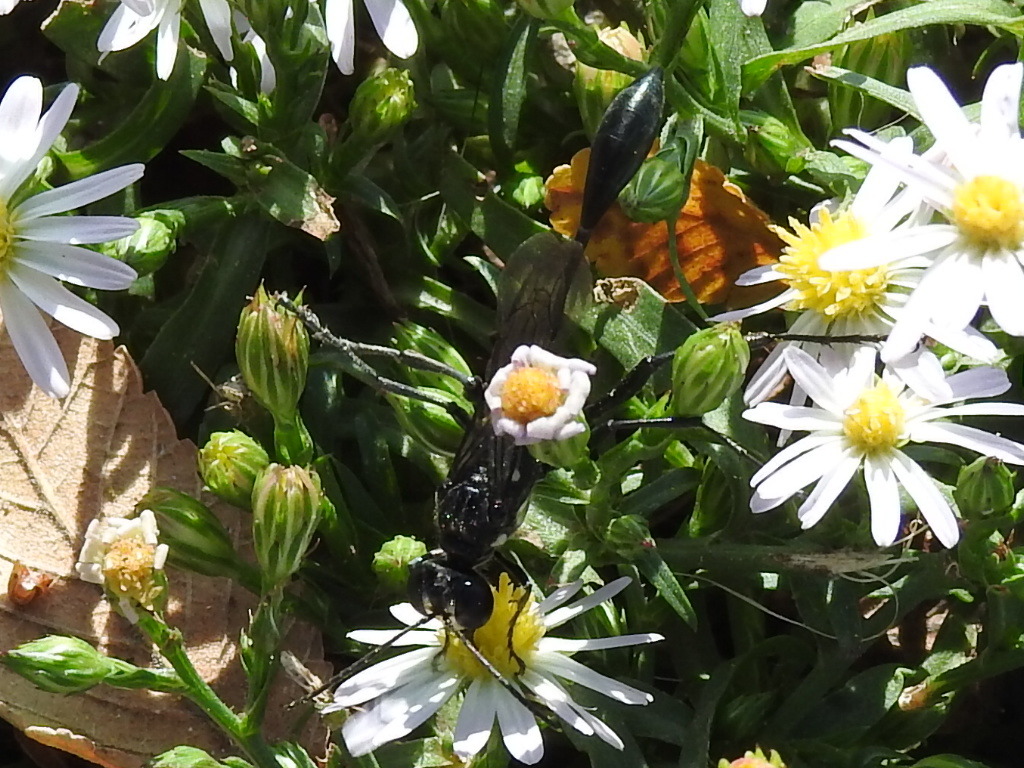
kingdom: Animalia
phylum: Arthropoda
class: Insecta
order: Hymenoptera
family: Sphecidae
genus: Eremnophila
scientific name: Eremnophila aureonotata
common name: Gold-marked thread-waisted wasp
